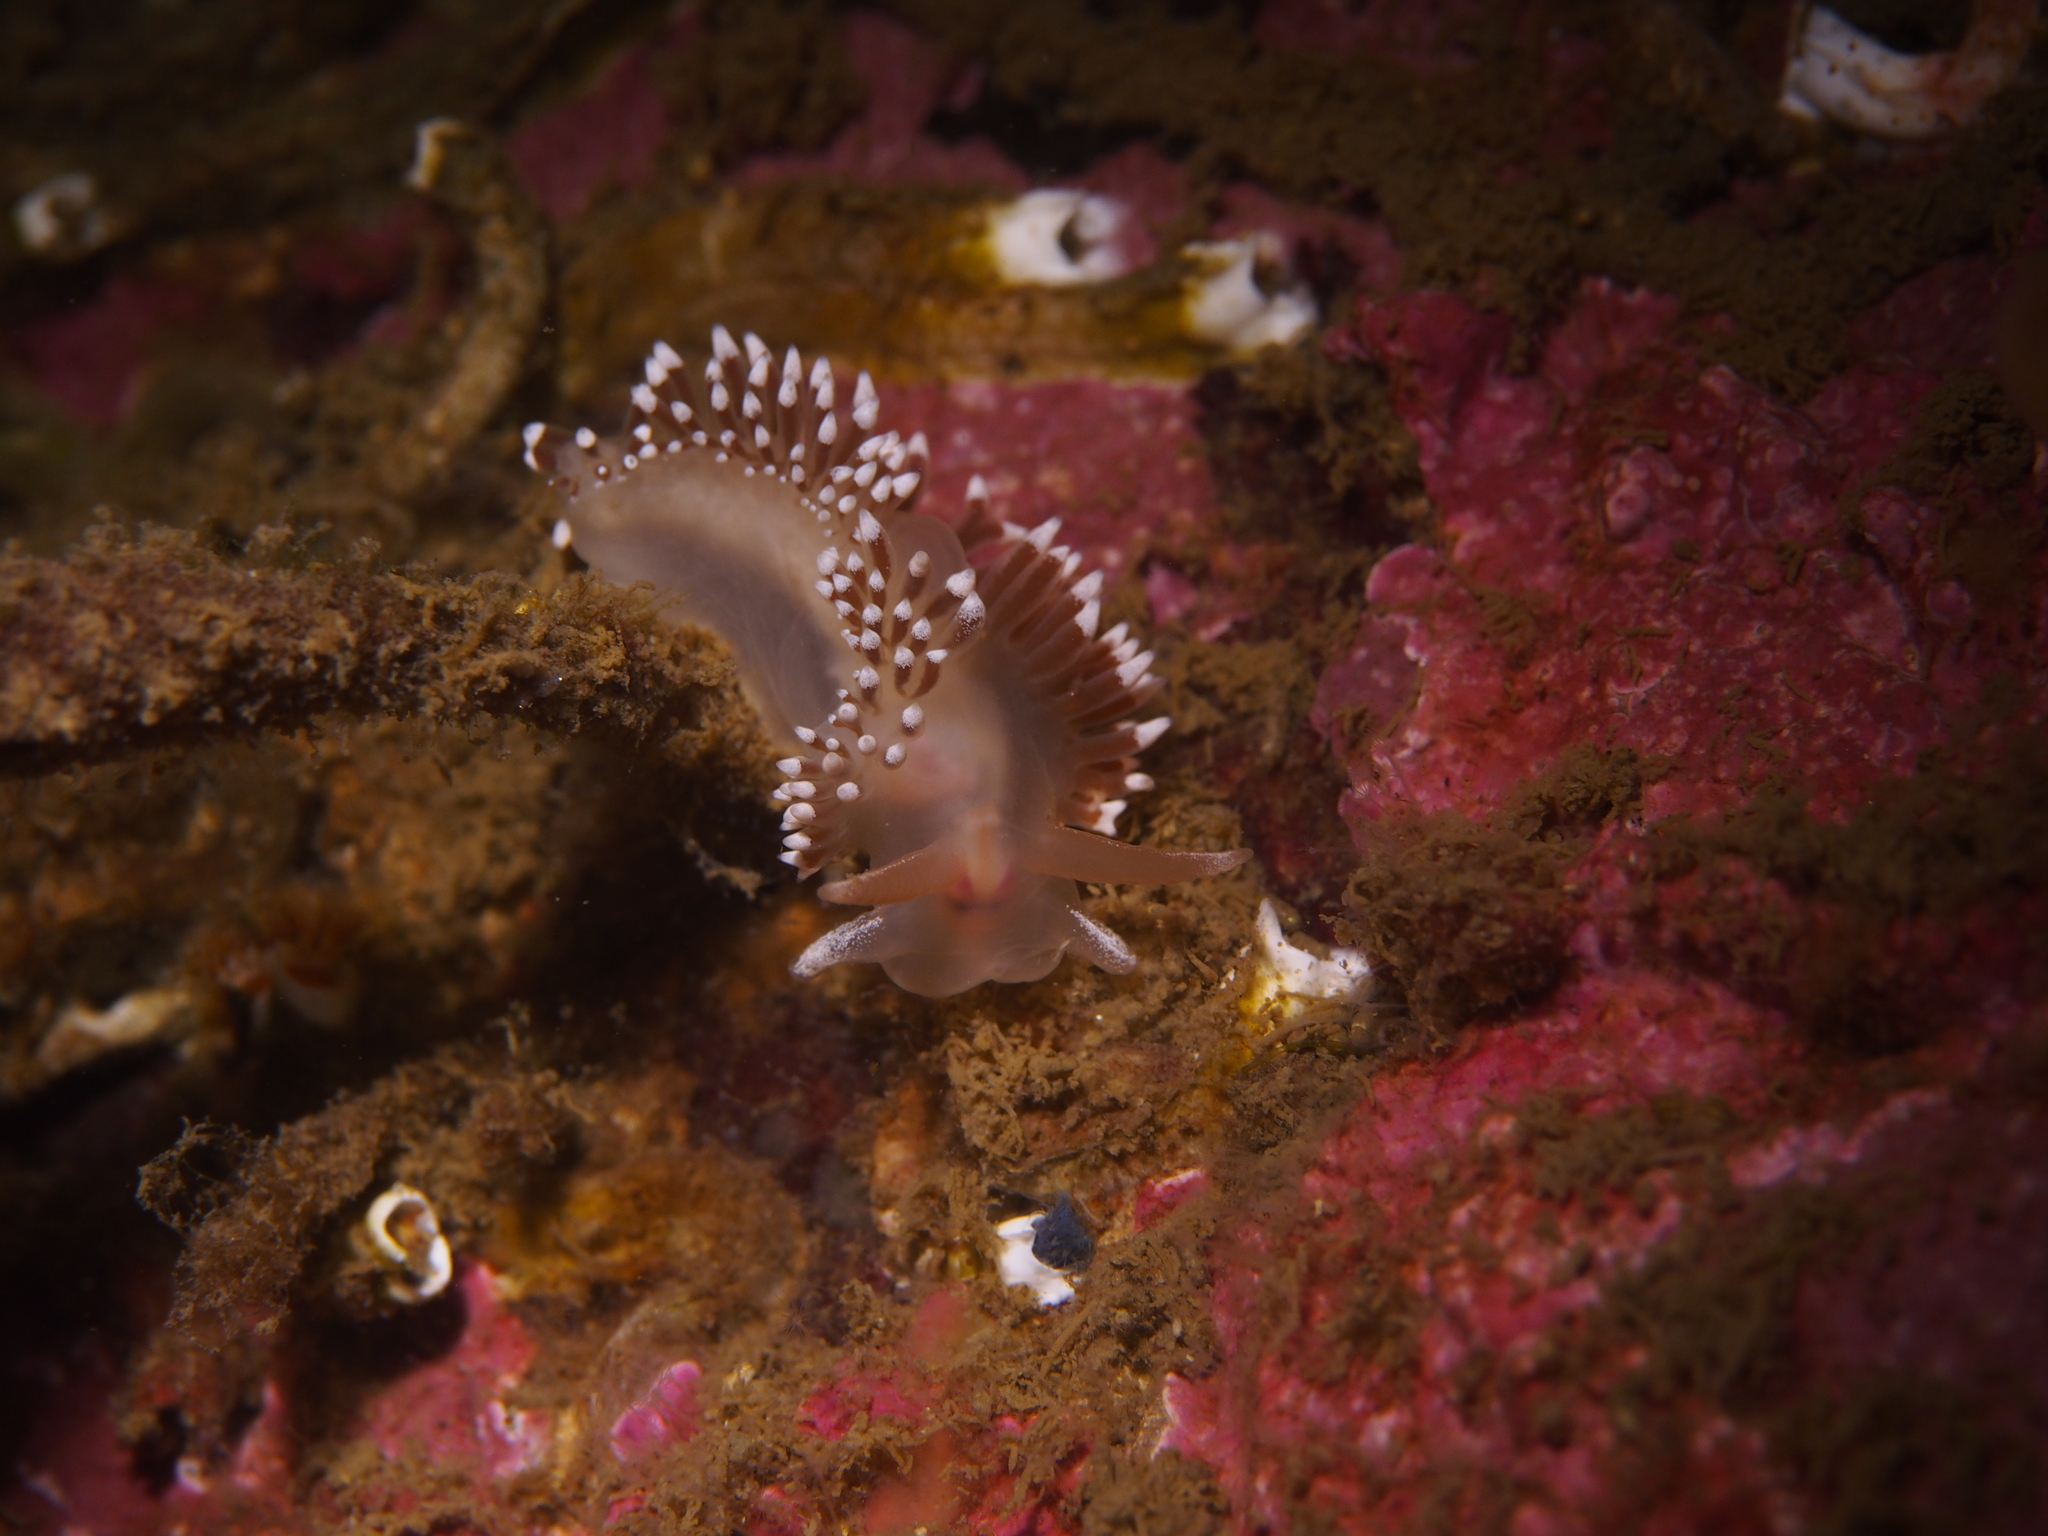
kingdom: Animalia
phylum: Mollusca
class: Gastropoda
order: Nudibranchia
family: Coryphellidae
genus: Coryphella
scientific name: Coryphella verrucosa
